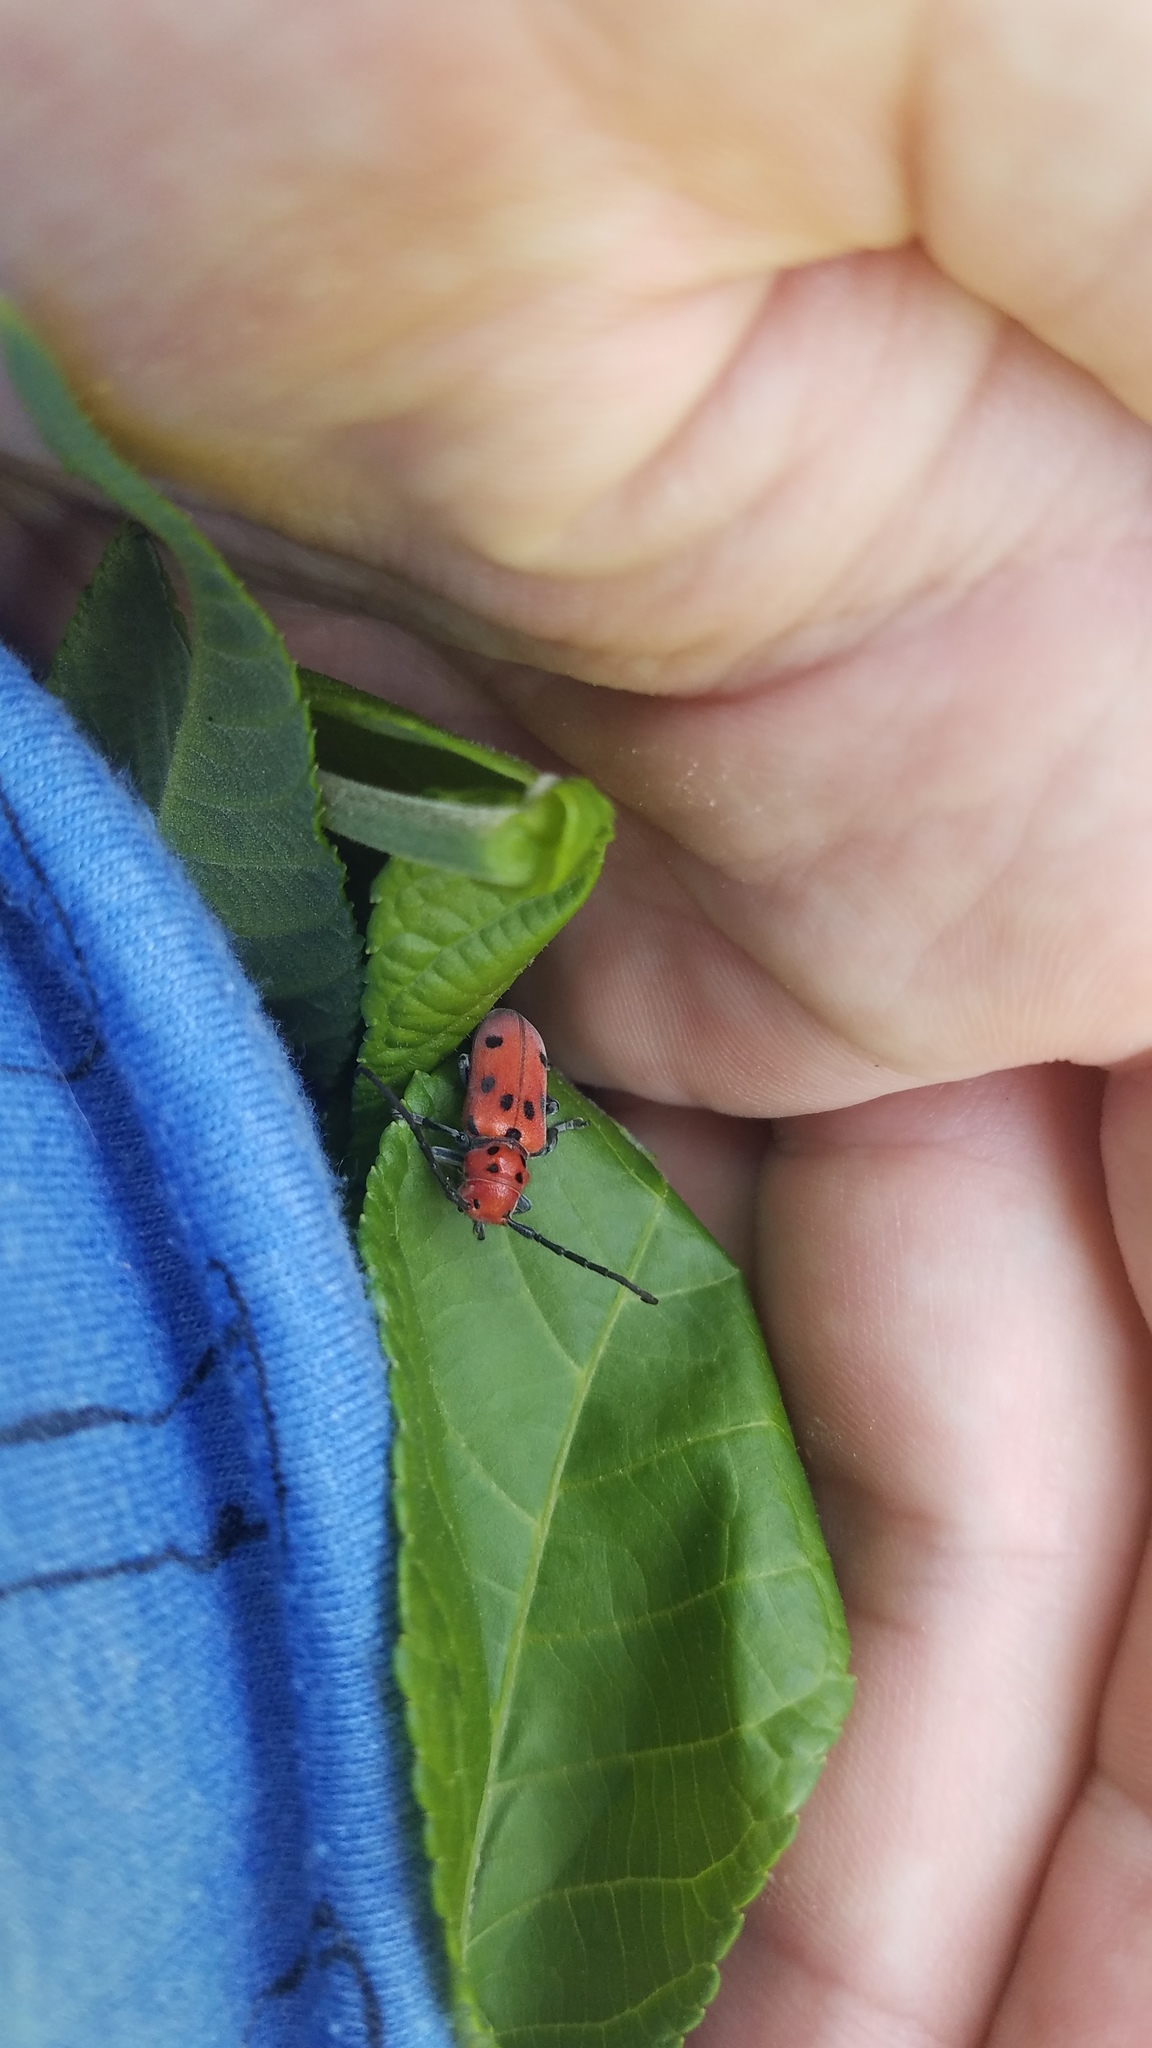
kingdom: Animalia
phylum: Arthropoda
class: Insecta
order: Coleoptera
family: Cerambycidae
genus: Tetraopes
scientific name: Tetraopes tetrophthalmus
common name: Red milkweed beetle
